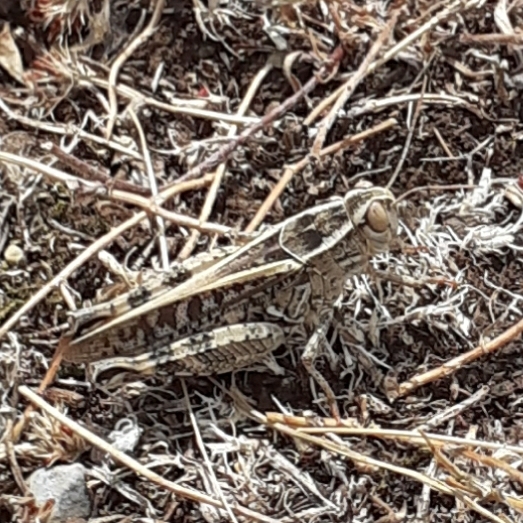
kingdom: Animalia
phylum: Arthropoda
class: Insecta
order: Orthoptera
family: Acrididae
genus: Calliptamus
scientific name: Calliptamus italicus
